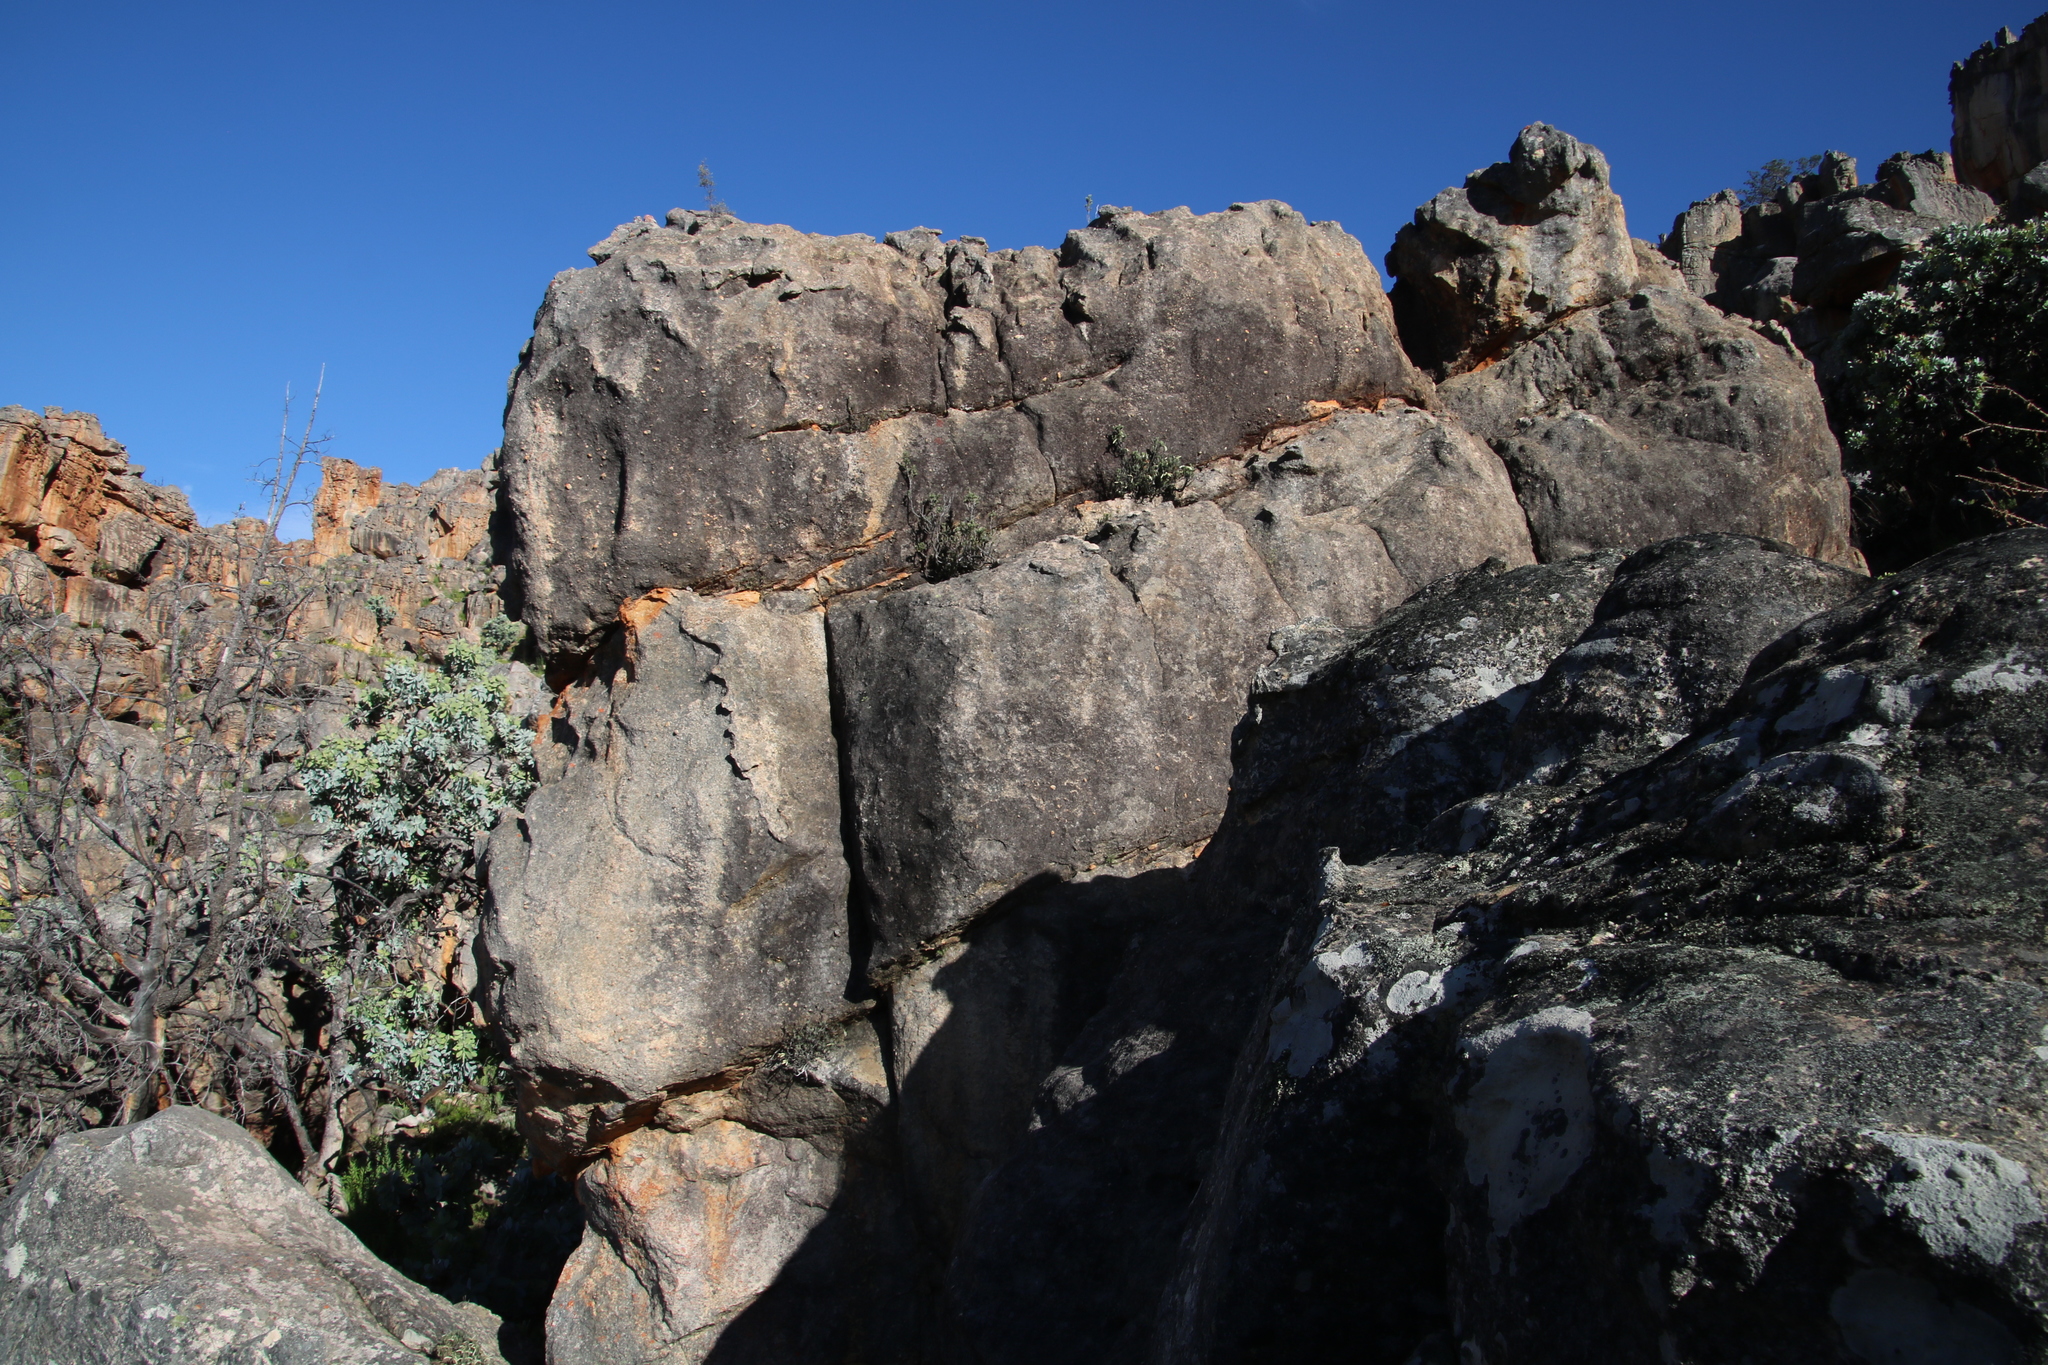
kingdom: Plantae
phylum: Tracheophyta
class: Magnoliopsida
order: Ericales
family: Ericaceae
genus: Erica
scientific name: Erica maximiliani
